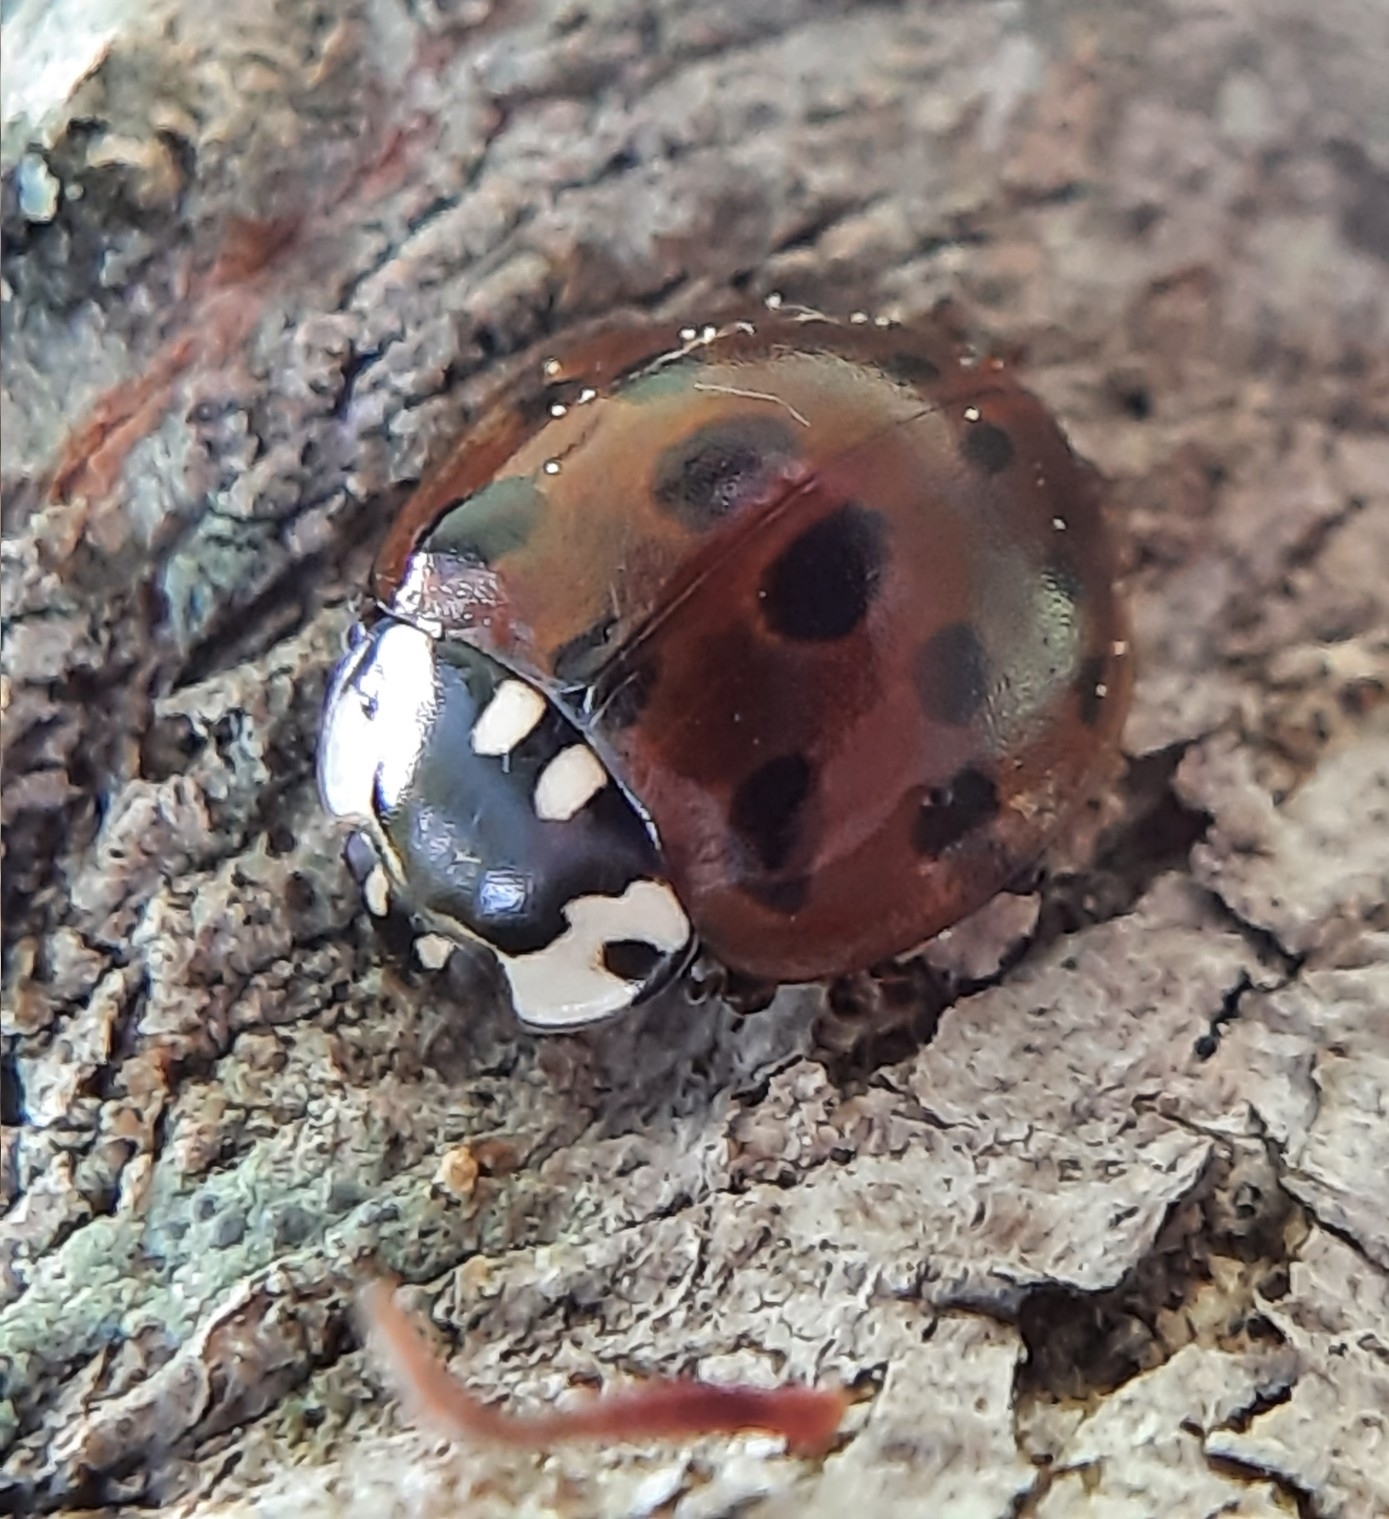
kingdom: Animalia
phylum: Arthropoda
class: Insecta
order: Coleoptera
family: Coccinellidae
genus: Anatis
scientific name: Anatis labiculata
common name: Fifteen-spotted lady beetle
